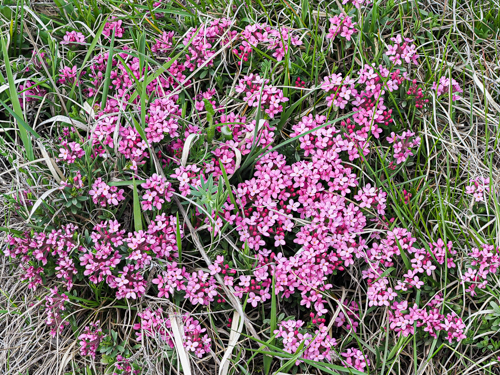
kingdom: Plantae
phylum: Tracheophyta
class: Magnoliopsida
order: Malvales
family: Thymelaeaceae
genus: Daphne
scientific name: Daphne cneorum
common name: Garland-flower
